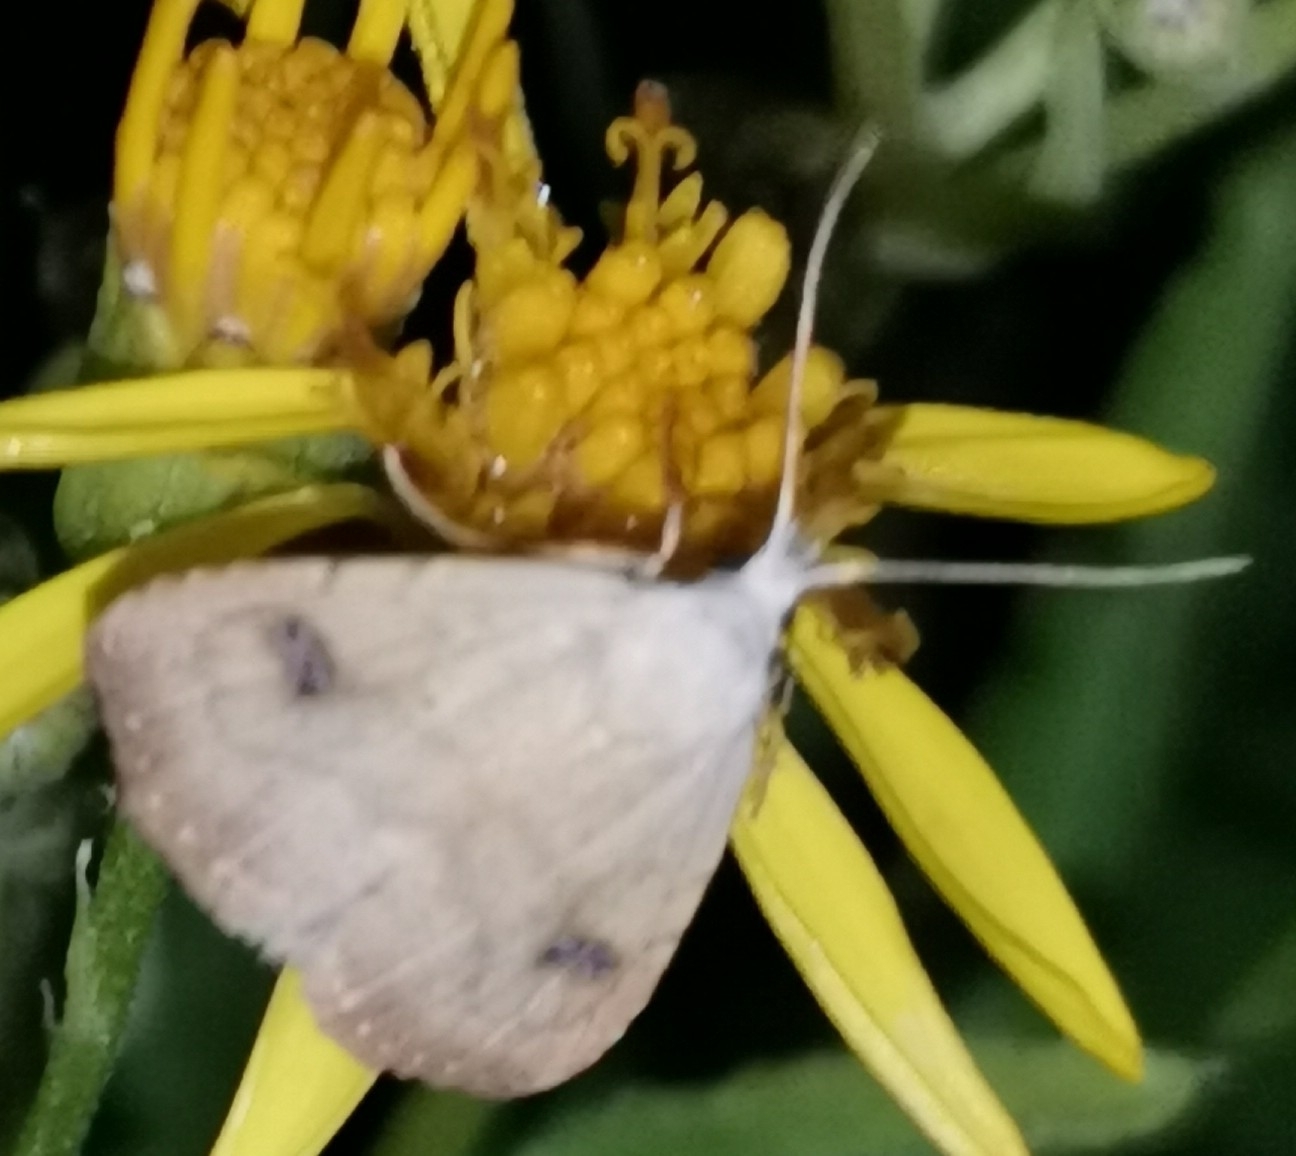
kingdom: Animalia
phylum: Arthropoda
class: Insecta
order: Lepidoptera
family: Erebidae
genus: Rivula
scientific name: Rivula sericealis
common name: Straw dot
